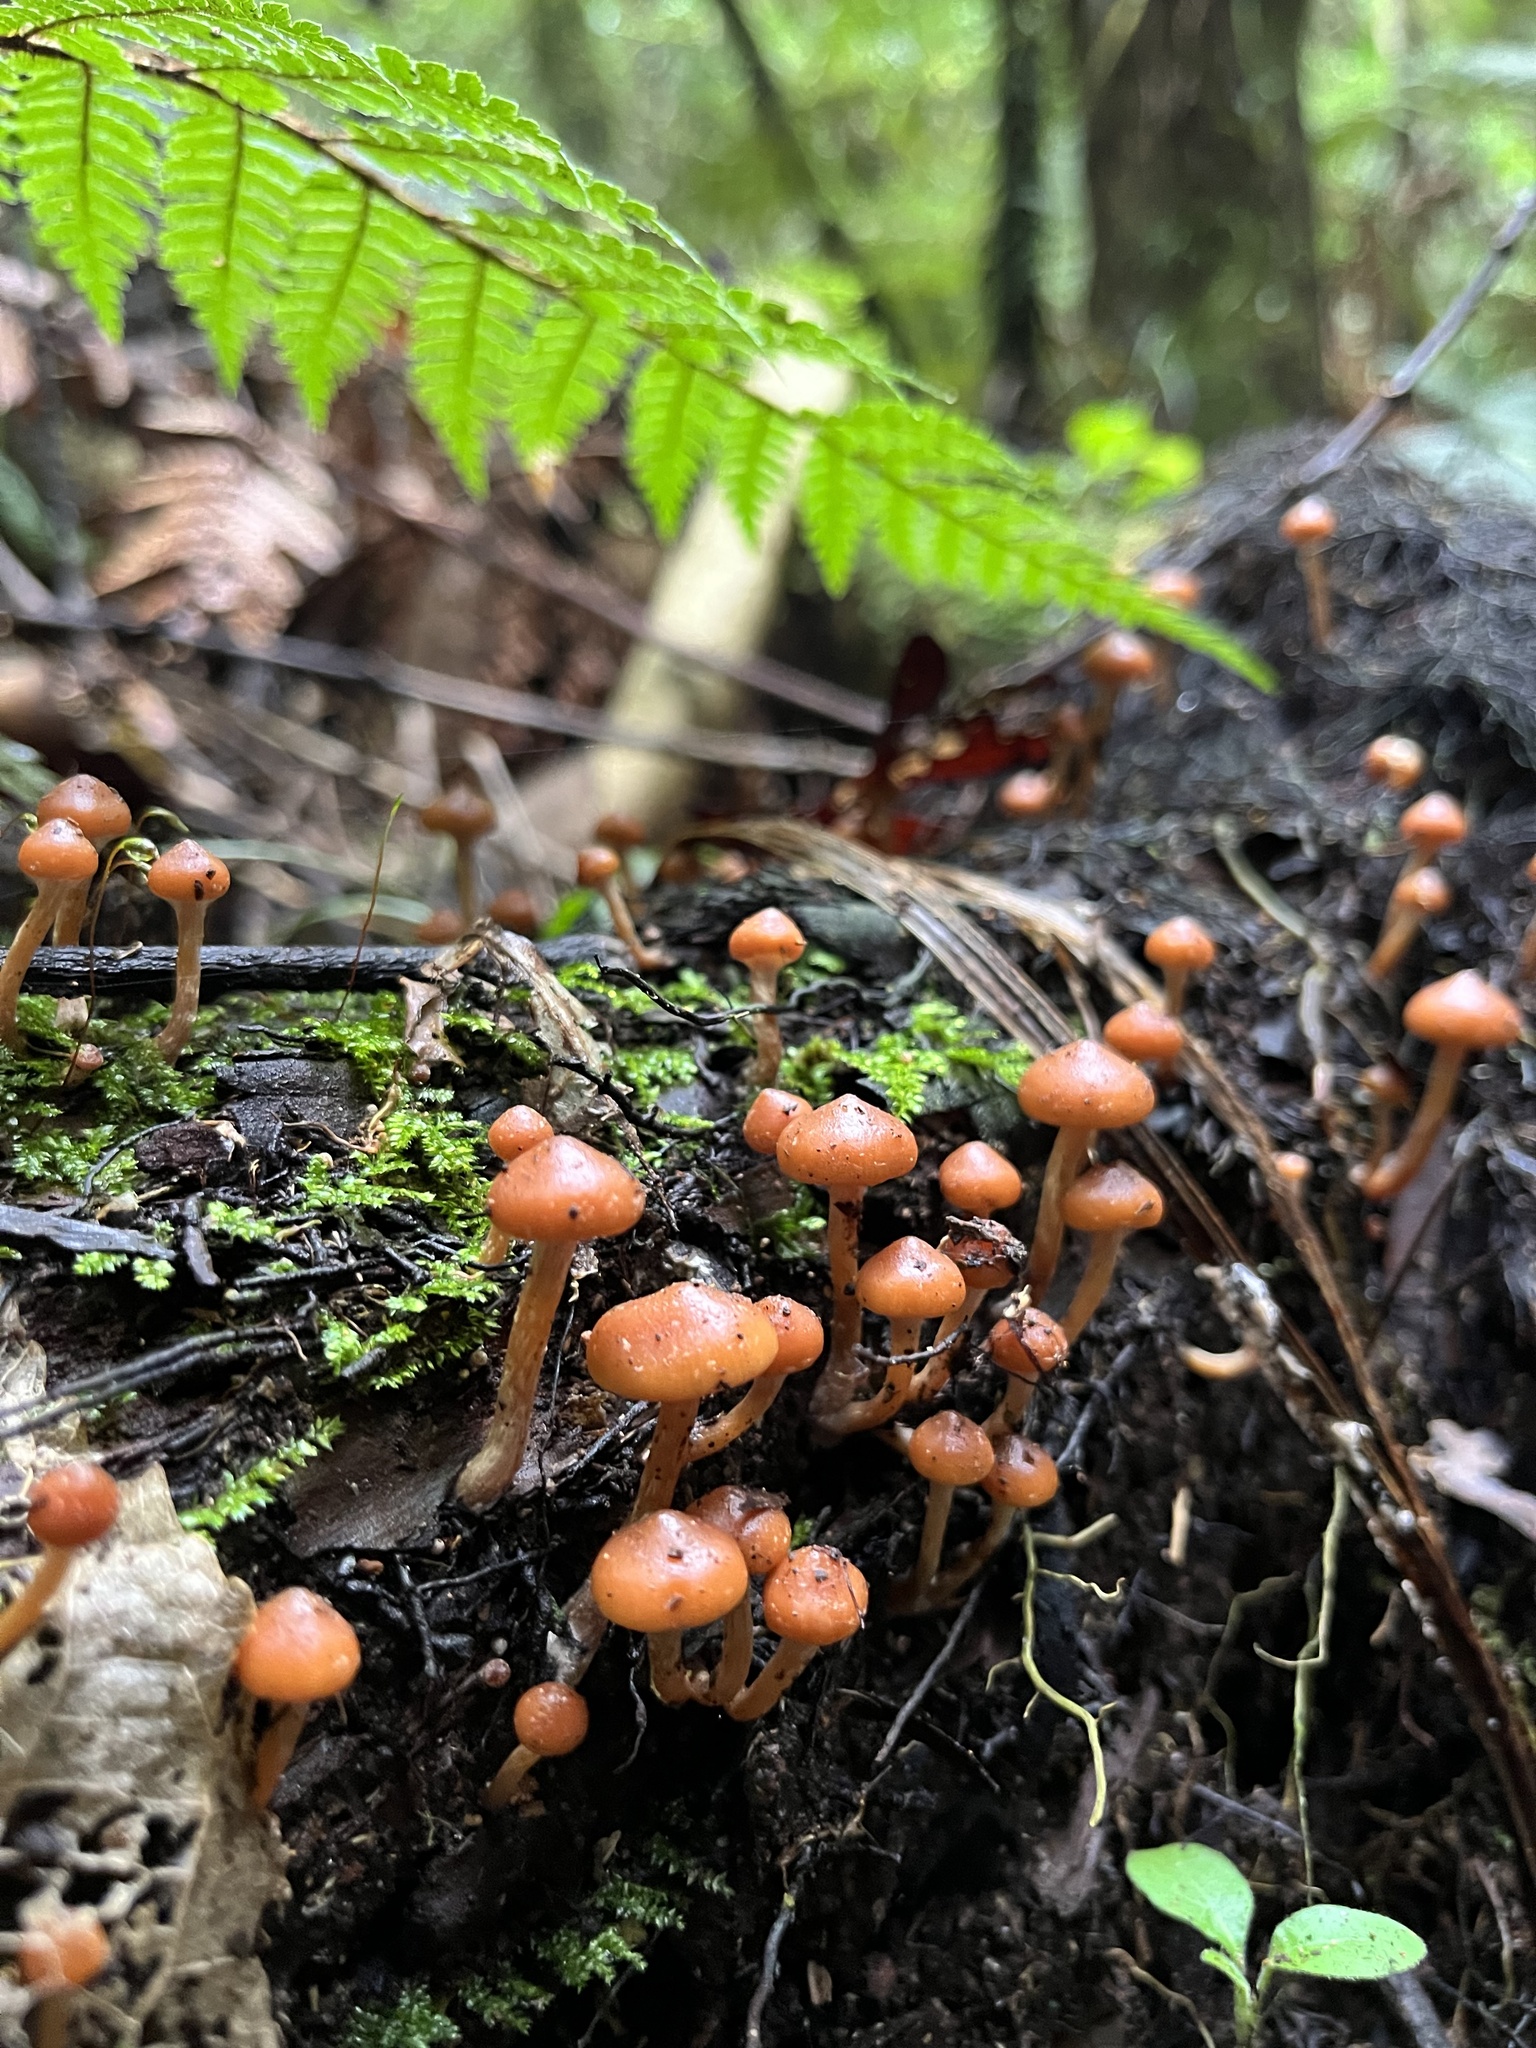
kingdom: Fungi
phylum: Basidiomycota
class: Agaricomycetes
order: Agaricales
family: Hymenogastraceae
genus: Galerina
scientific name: Galerina patagonica
